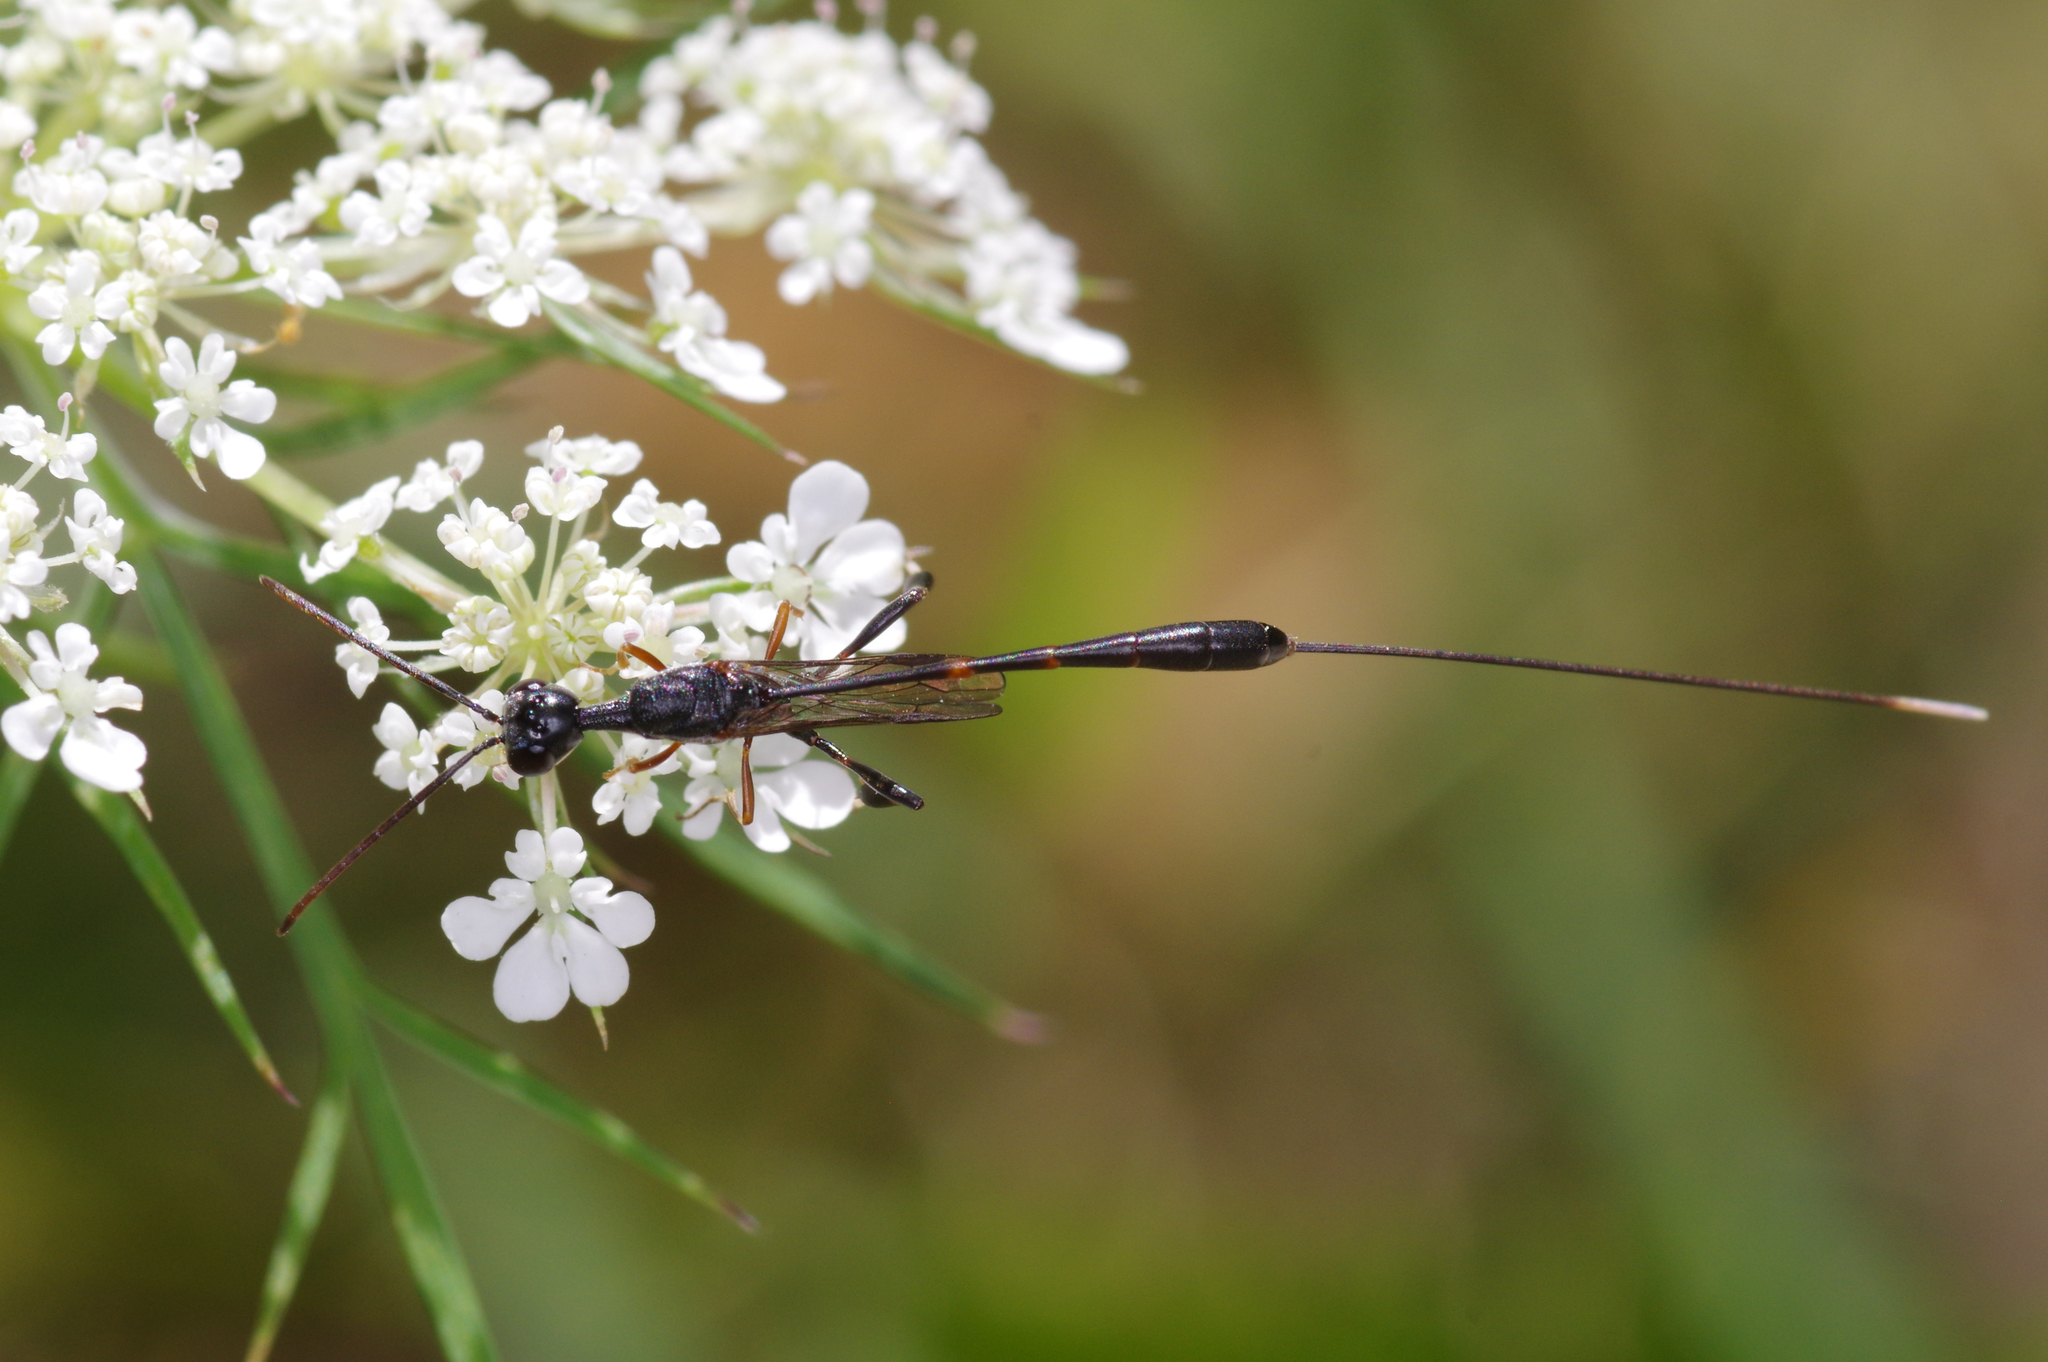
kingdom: Animalia
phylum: Arthropoda
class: Insecta
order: Hymenoptera
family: Gasteruptiidae
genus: Gasteruption
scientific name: Gasteruption
